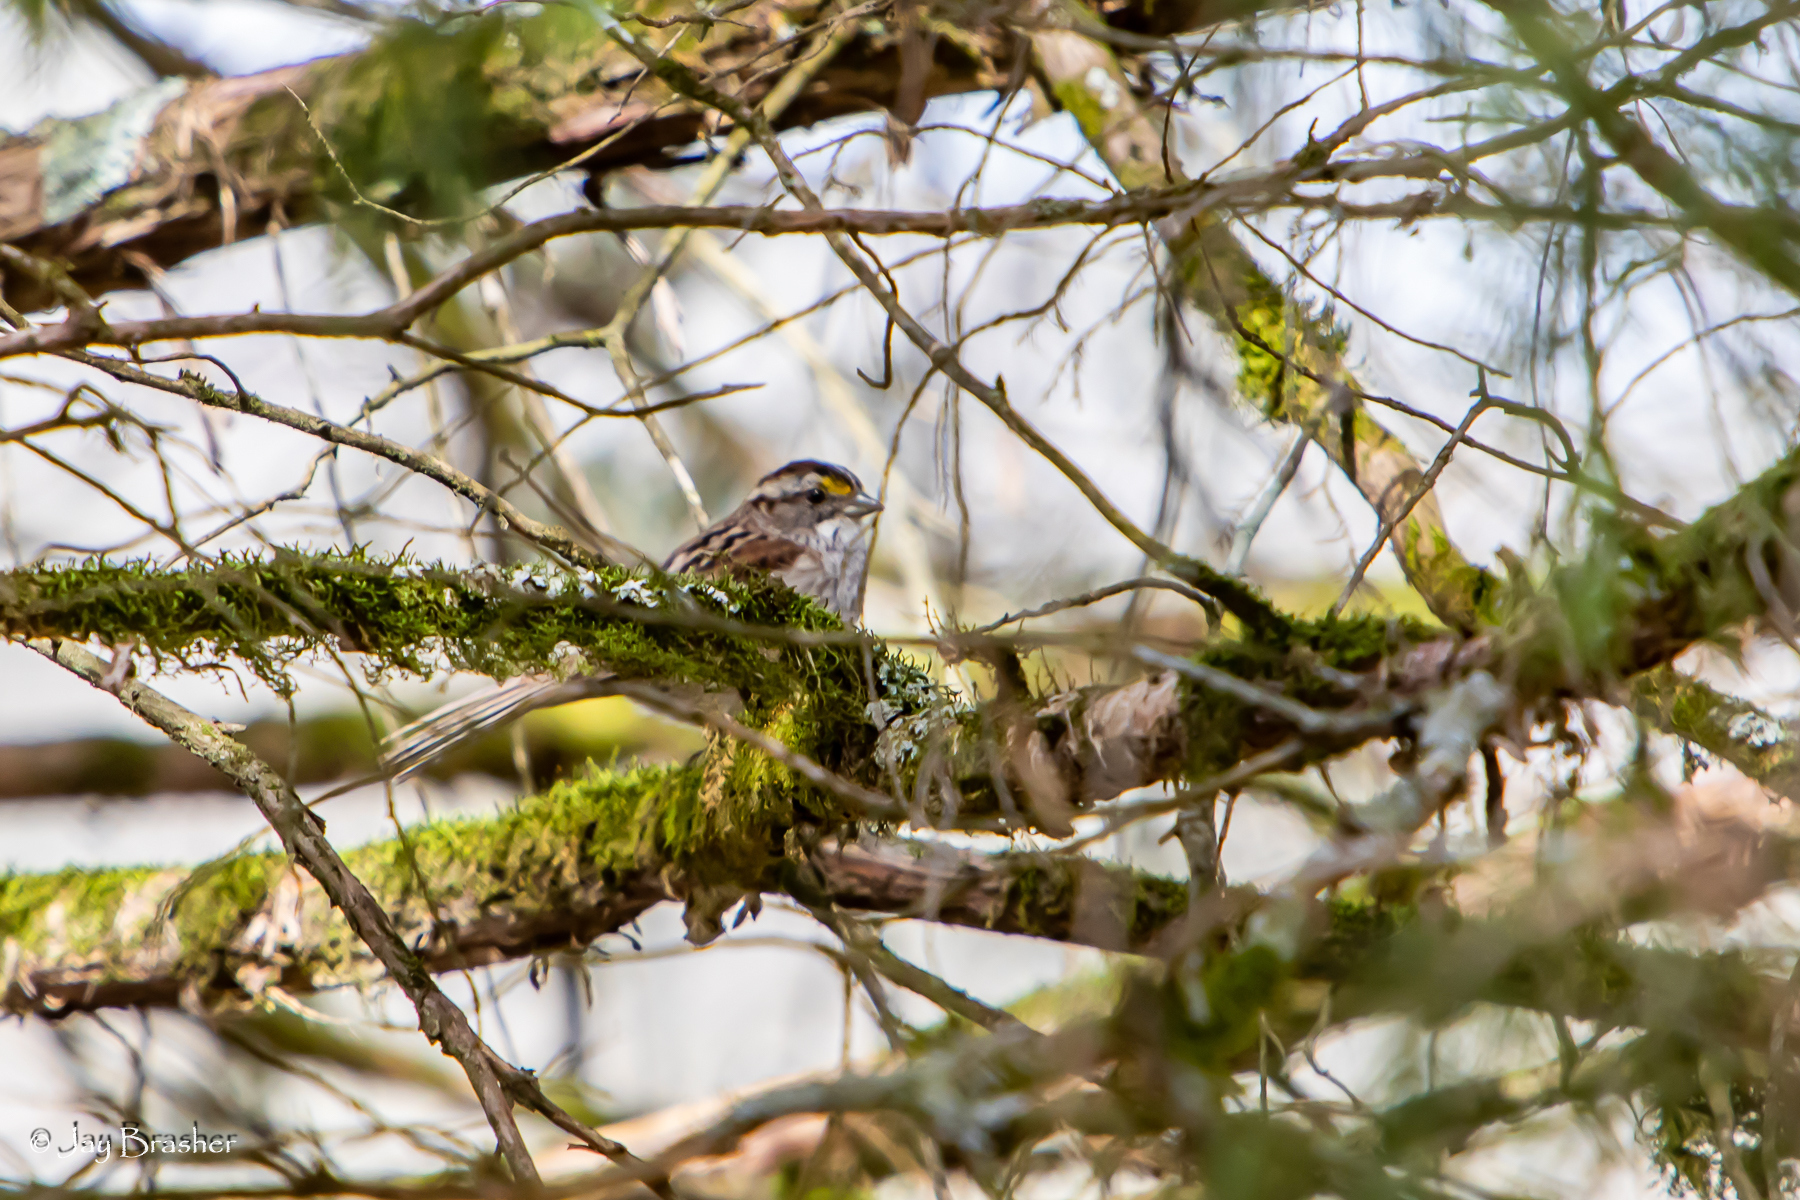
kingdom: Animalia
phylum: Chordata
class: Aves
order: Passeriformes
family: Passerellidae
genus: Zonotrichia
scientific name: Zonotrichia albicollis
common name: White-throated sparrow
